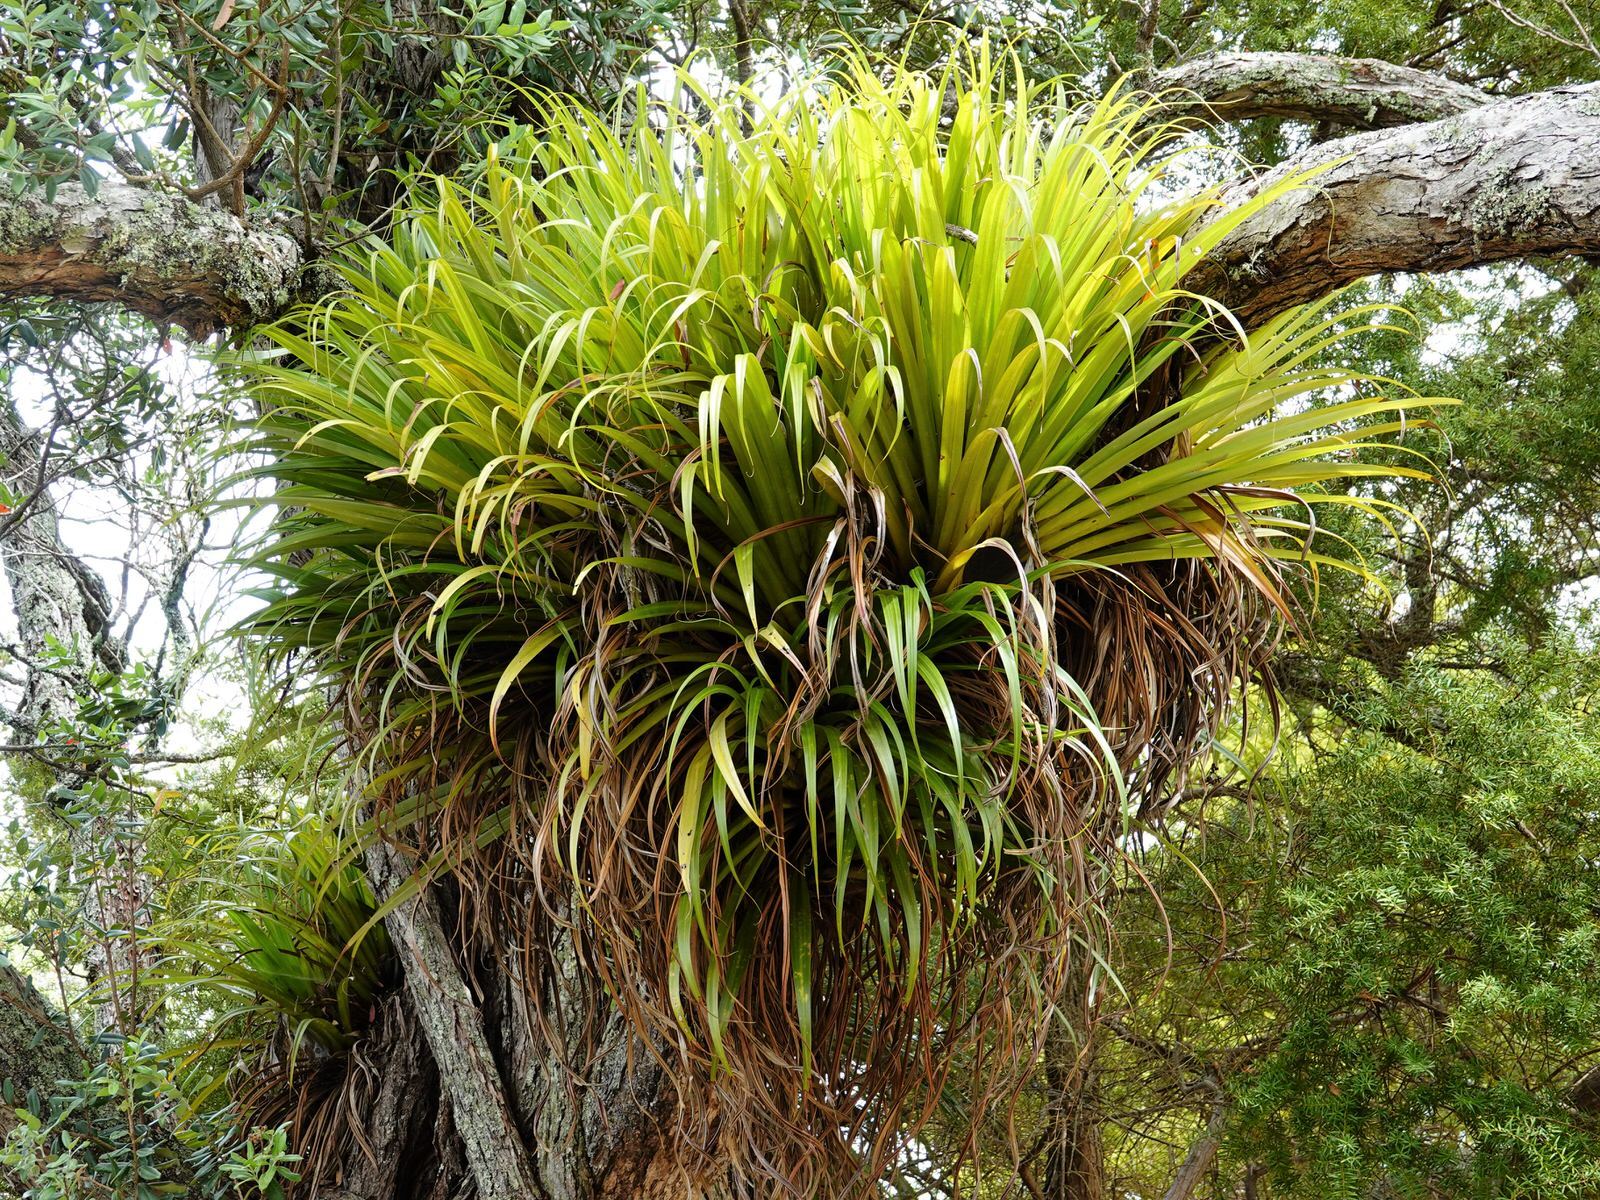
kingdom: Plantae
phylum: Tracheophyta
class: Liliopsida
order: Asparagales
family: Asteliaceae
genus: Astelia
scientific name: Astelia hastata
